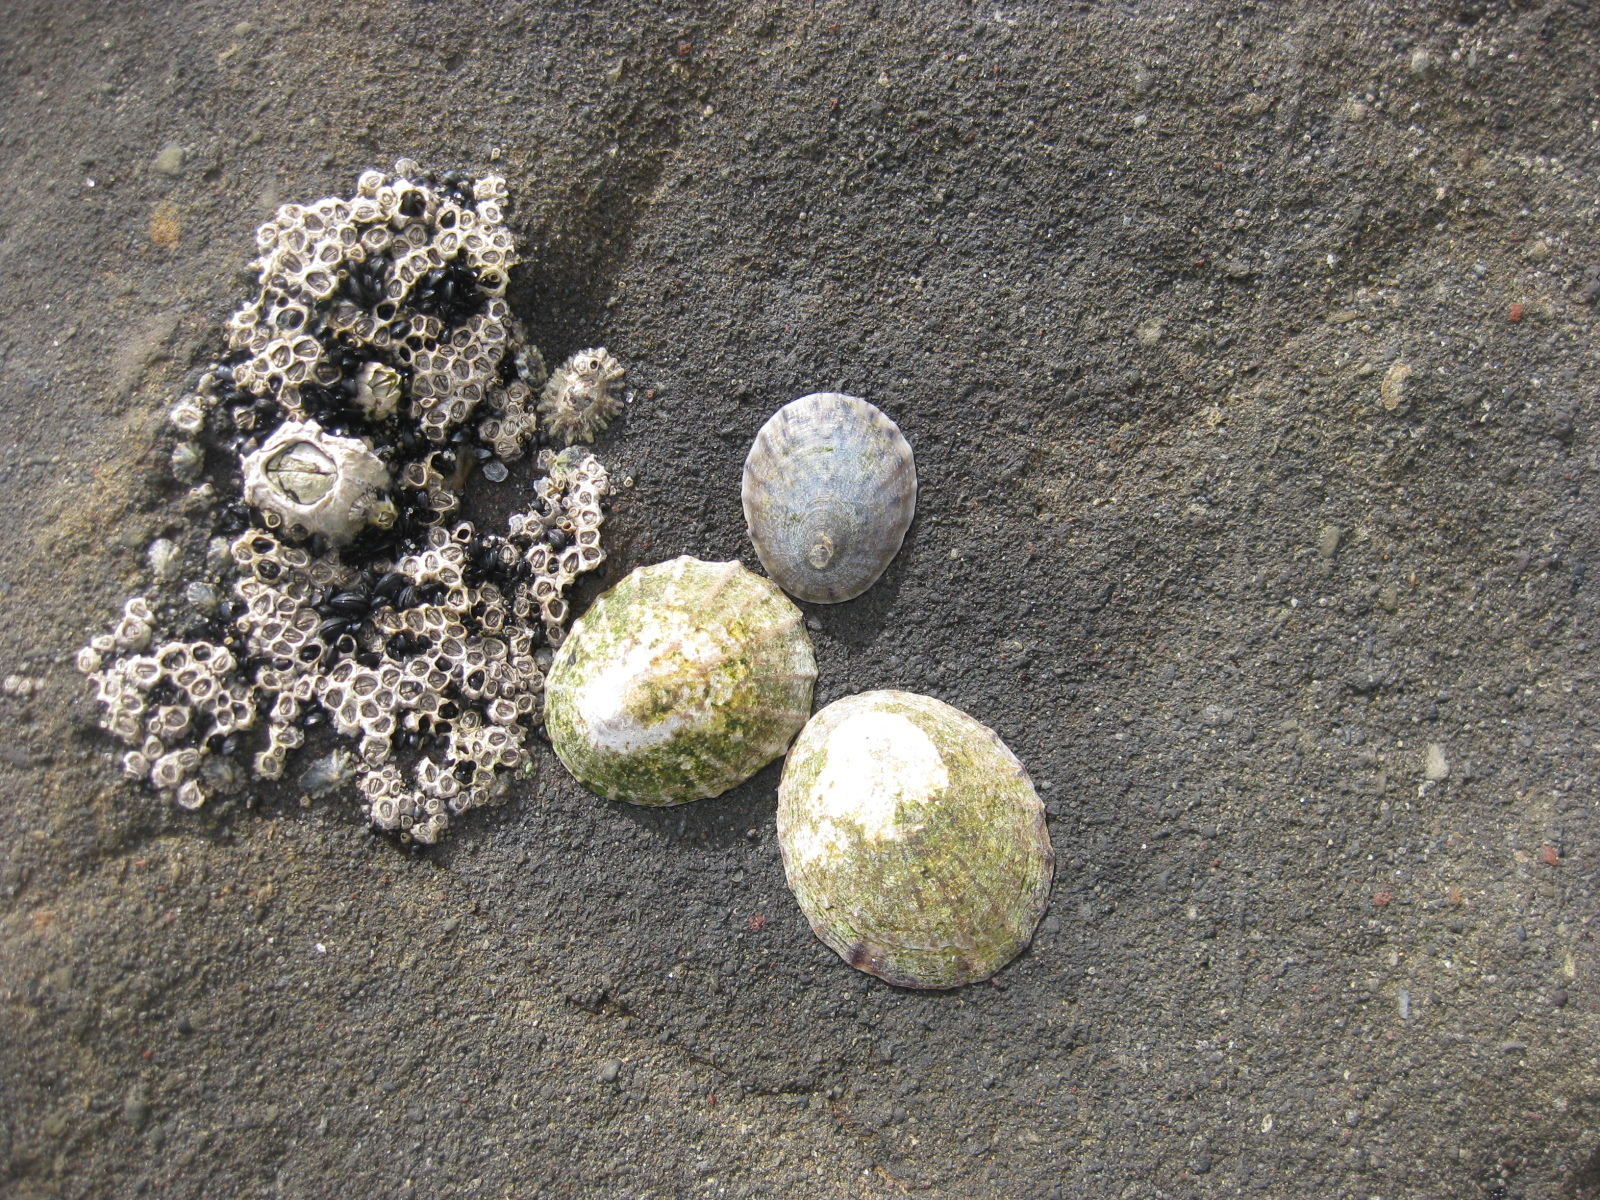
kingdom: Animalia
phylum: Mollusca
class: Gastropoda
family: Nacellidae
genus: Cellana
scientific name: Cellana radians
